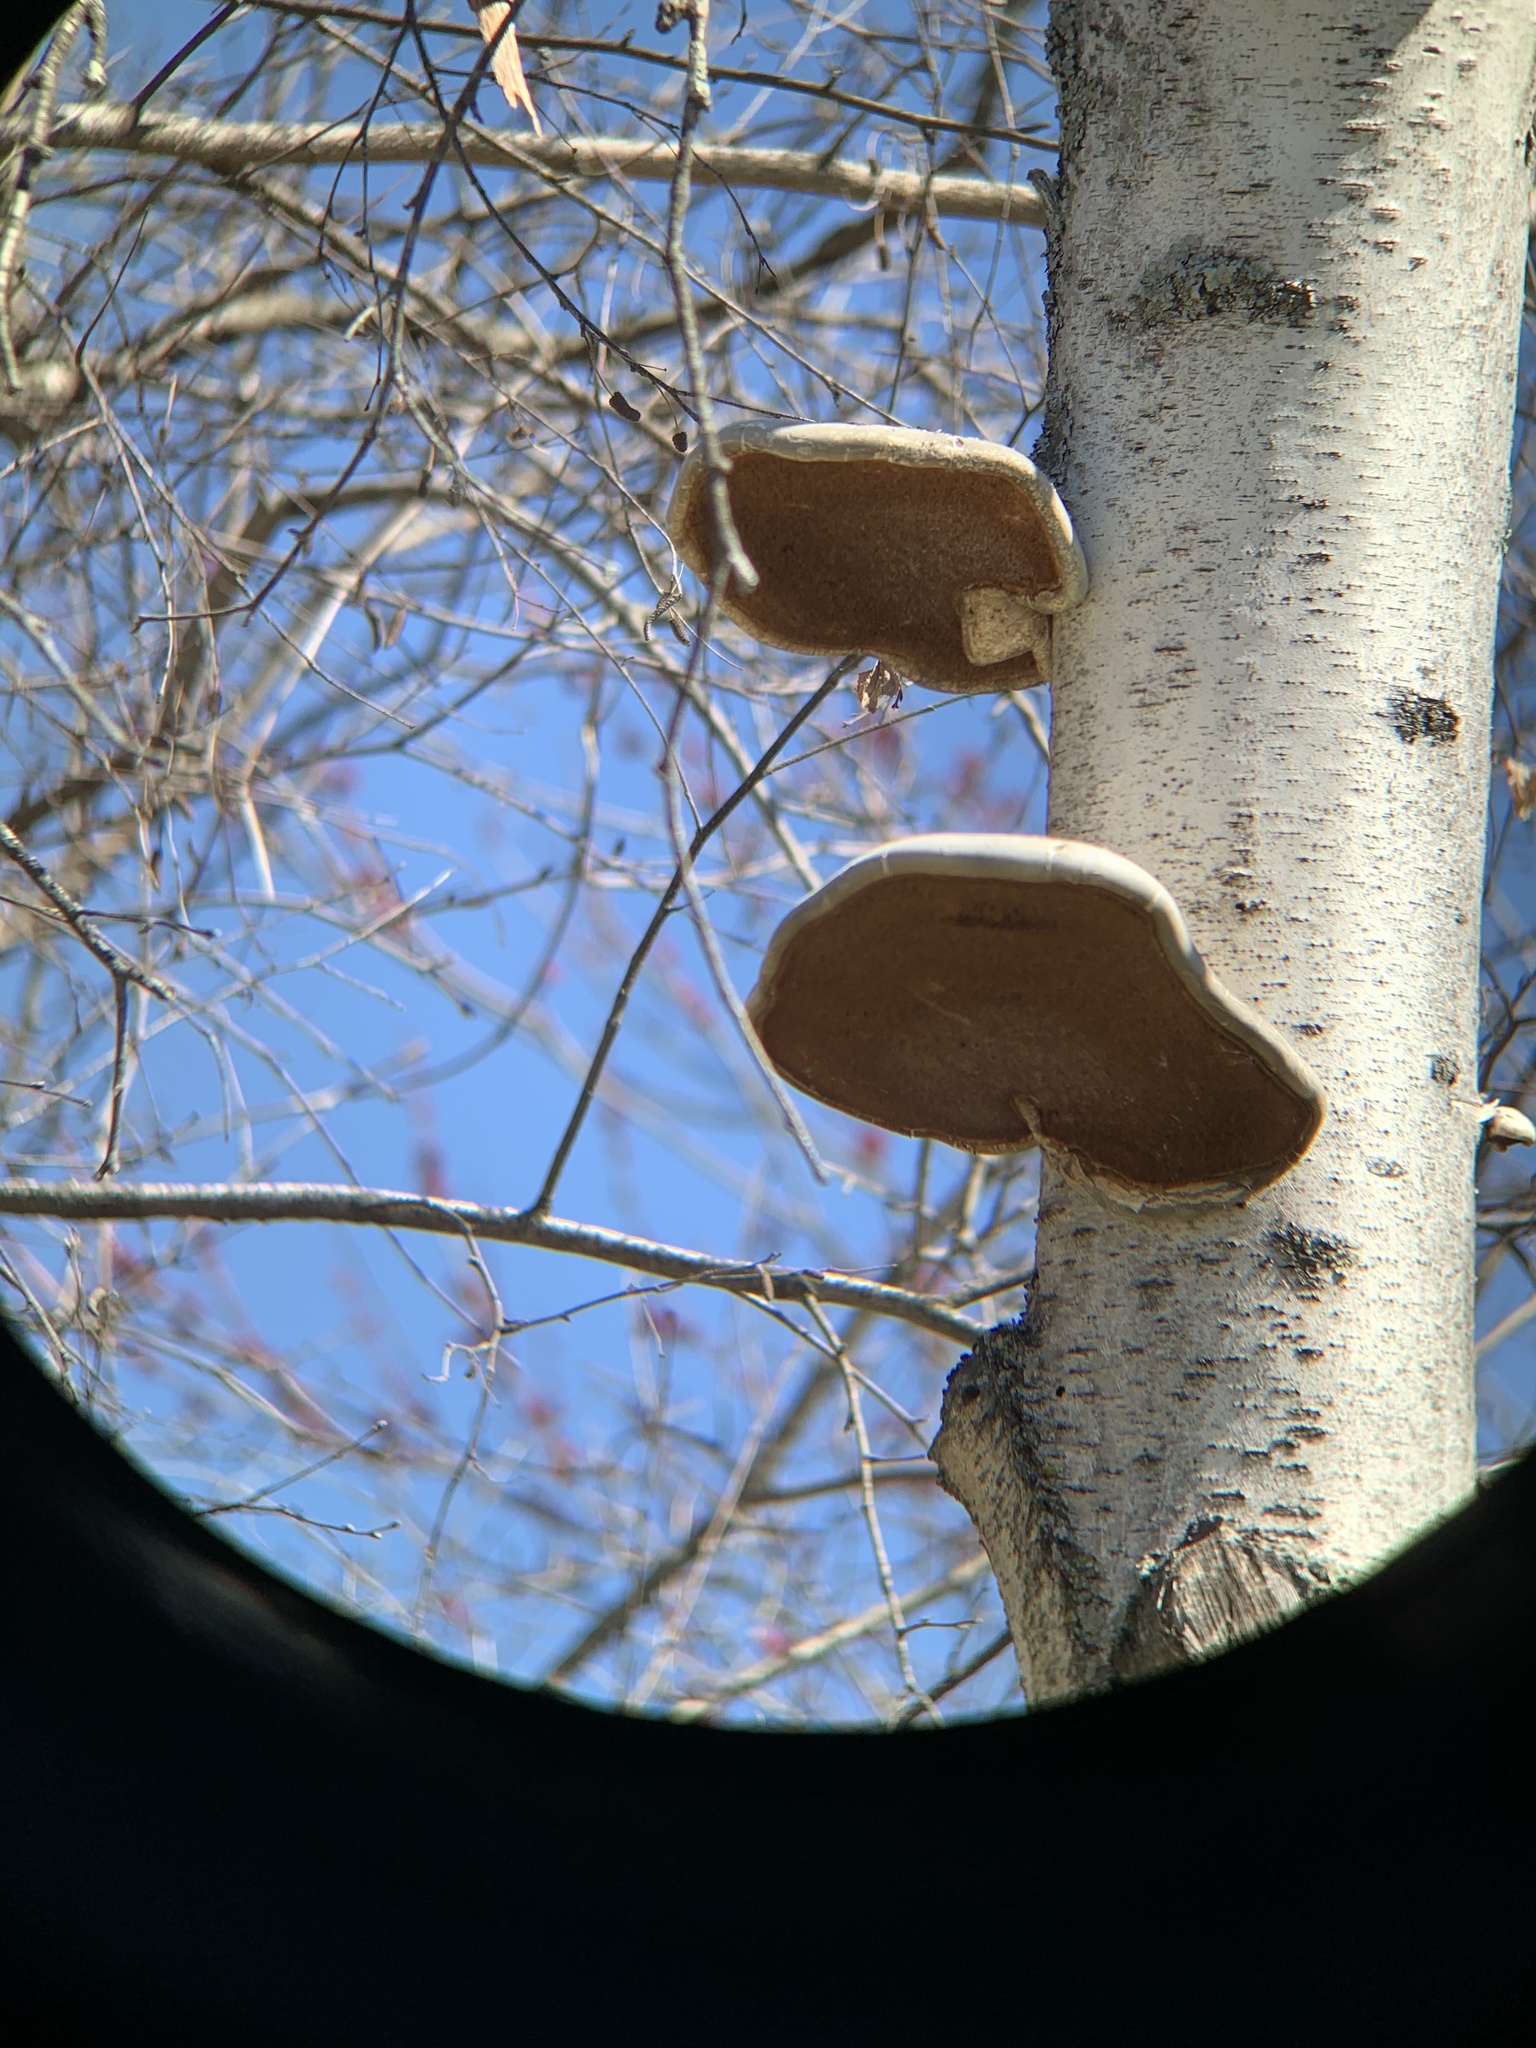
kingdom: Fungi
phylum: Basidiomycota
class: Agaricomycetes
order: Polyporales
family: Fomitopsidaceae
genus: Fomitopsis
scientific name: Fomitopsis betulina
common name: Birch polypore
